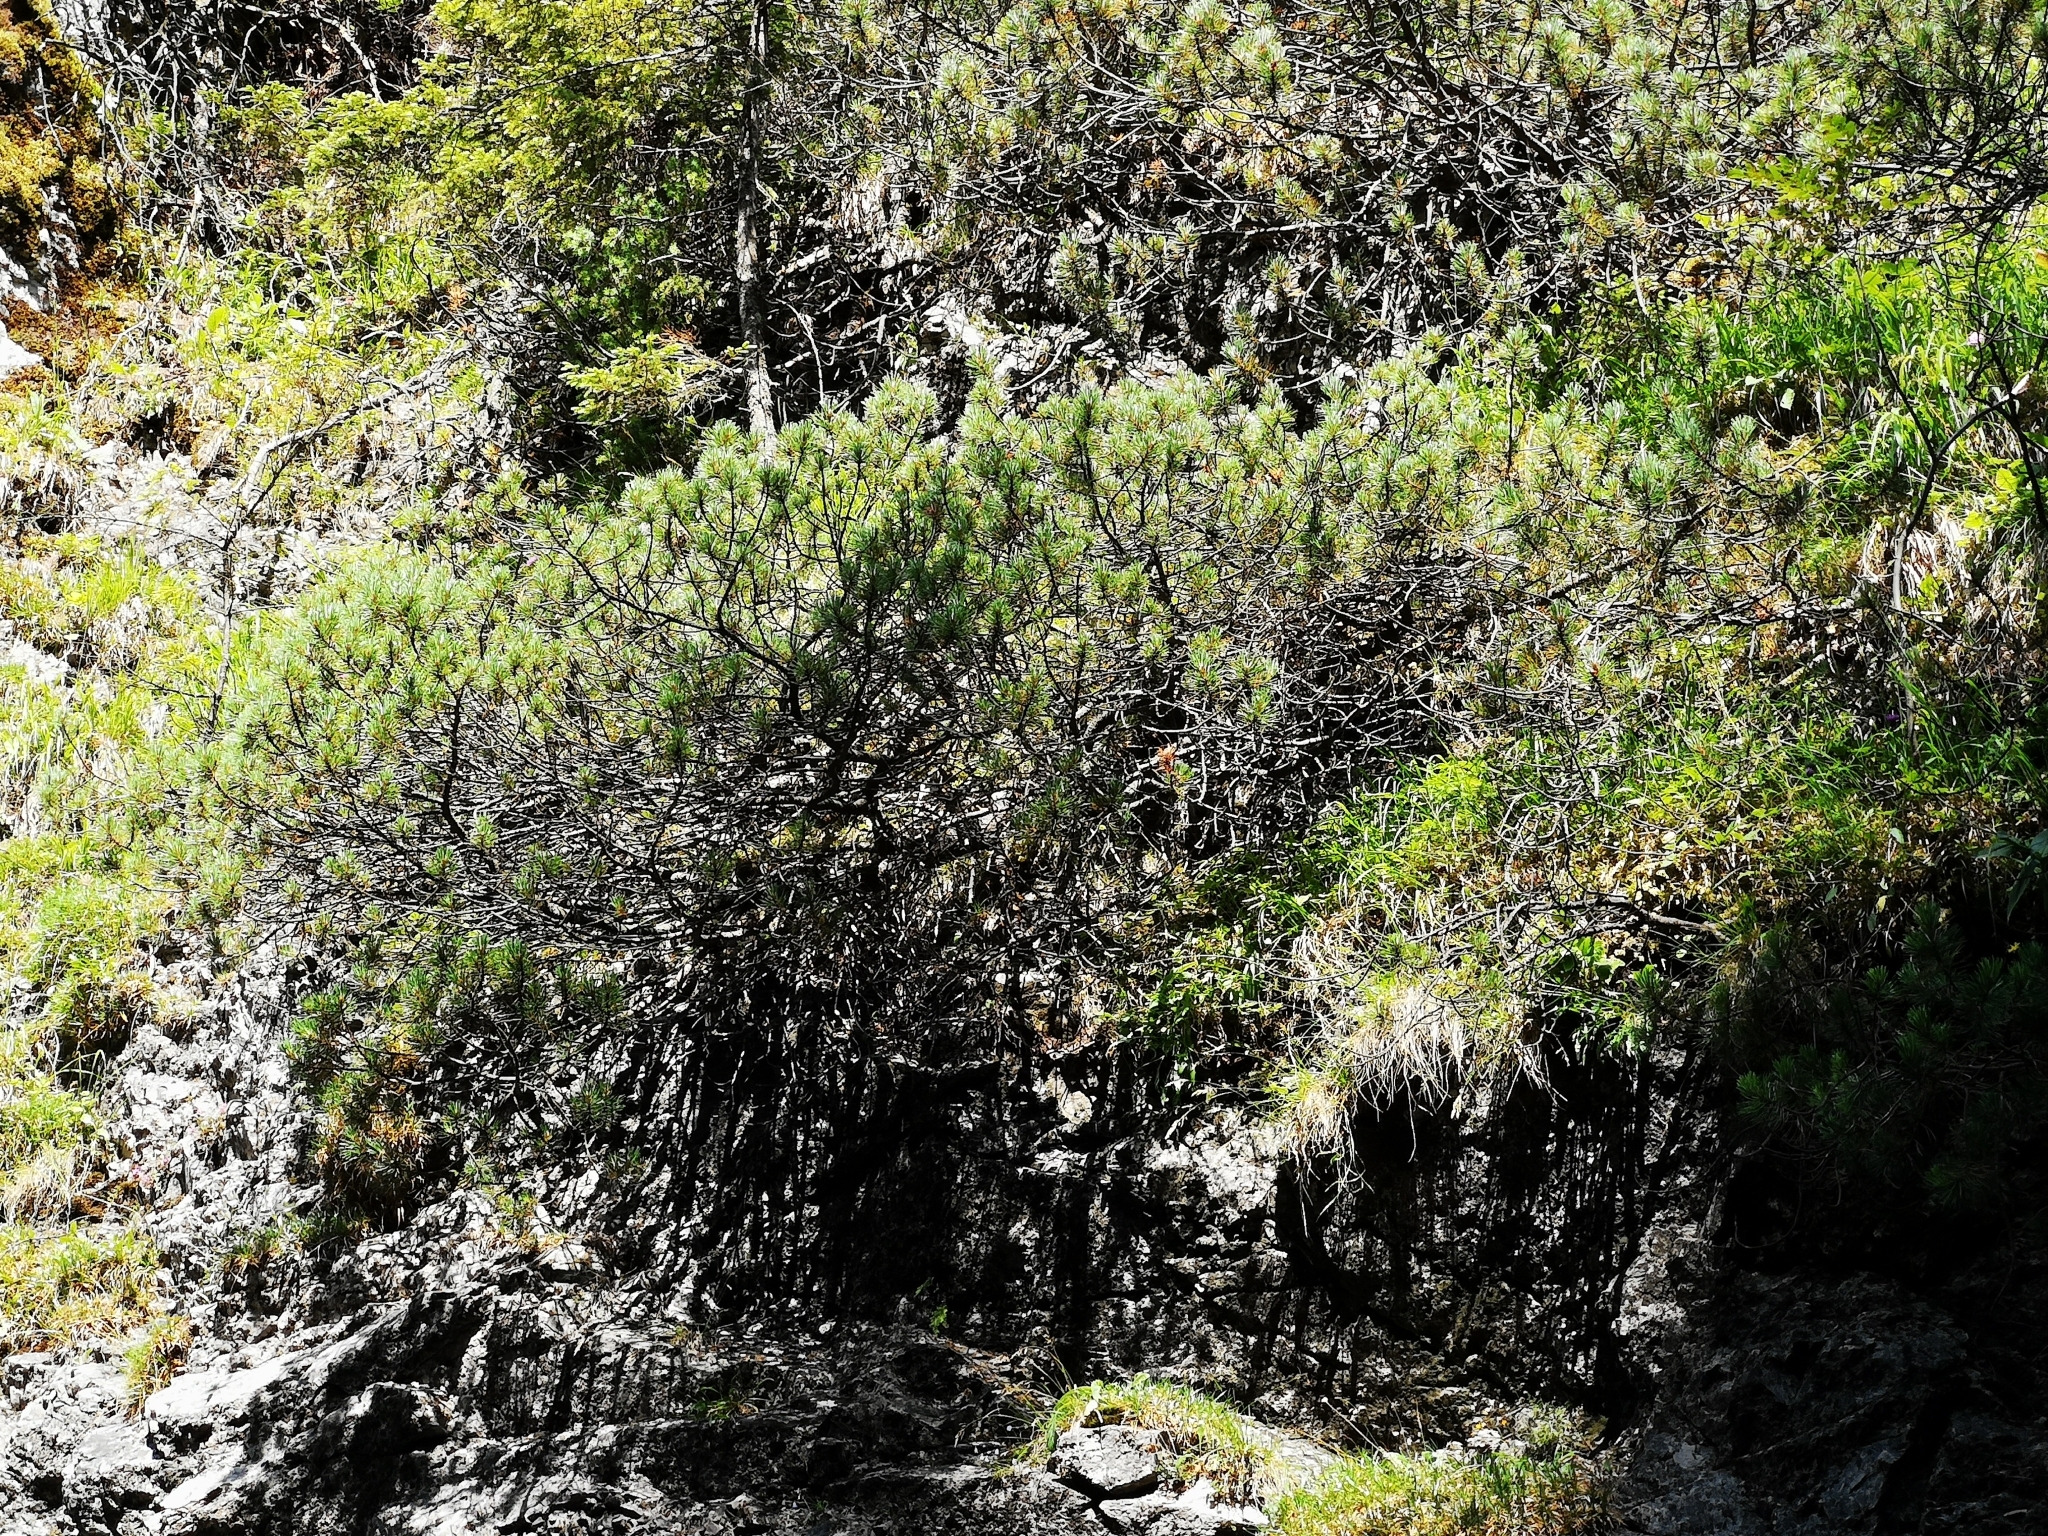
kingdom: Plantae
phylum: Tracheophyta
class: Pinopsida
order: Pinales
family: Pinaceae
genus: Pinus
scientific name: Pinus mugo
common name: Mugo pine
